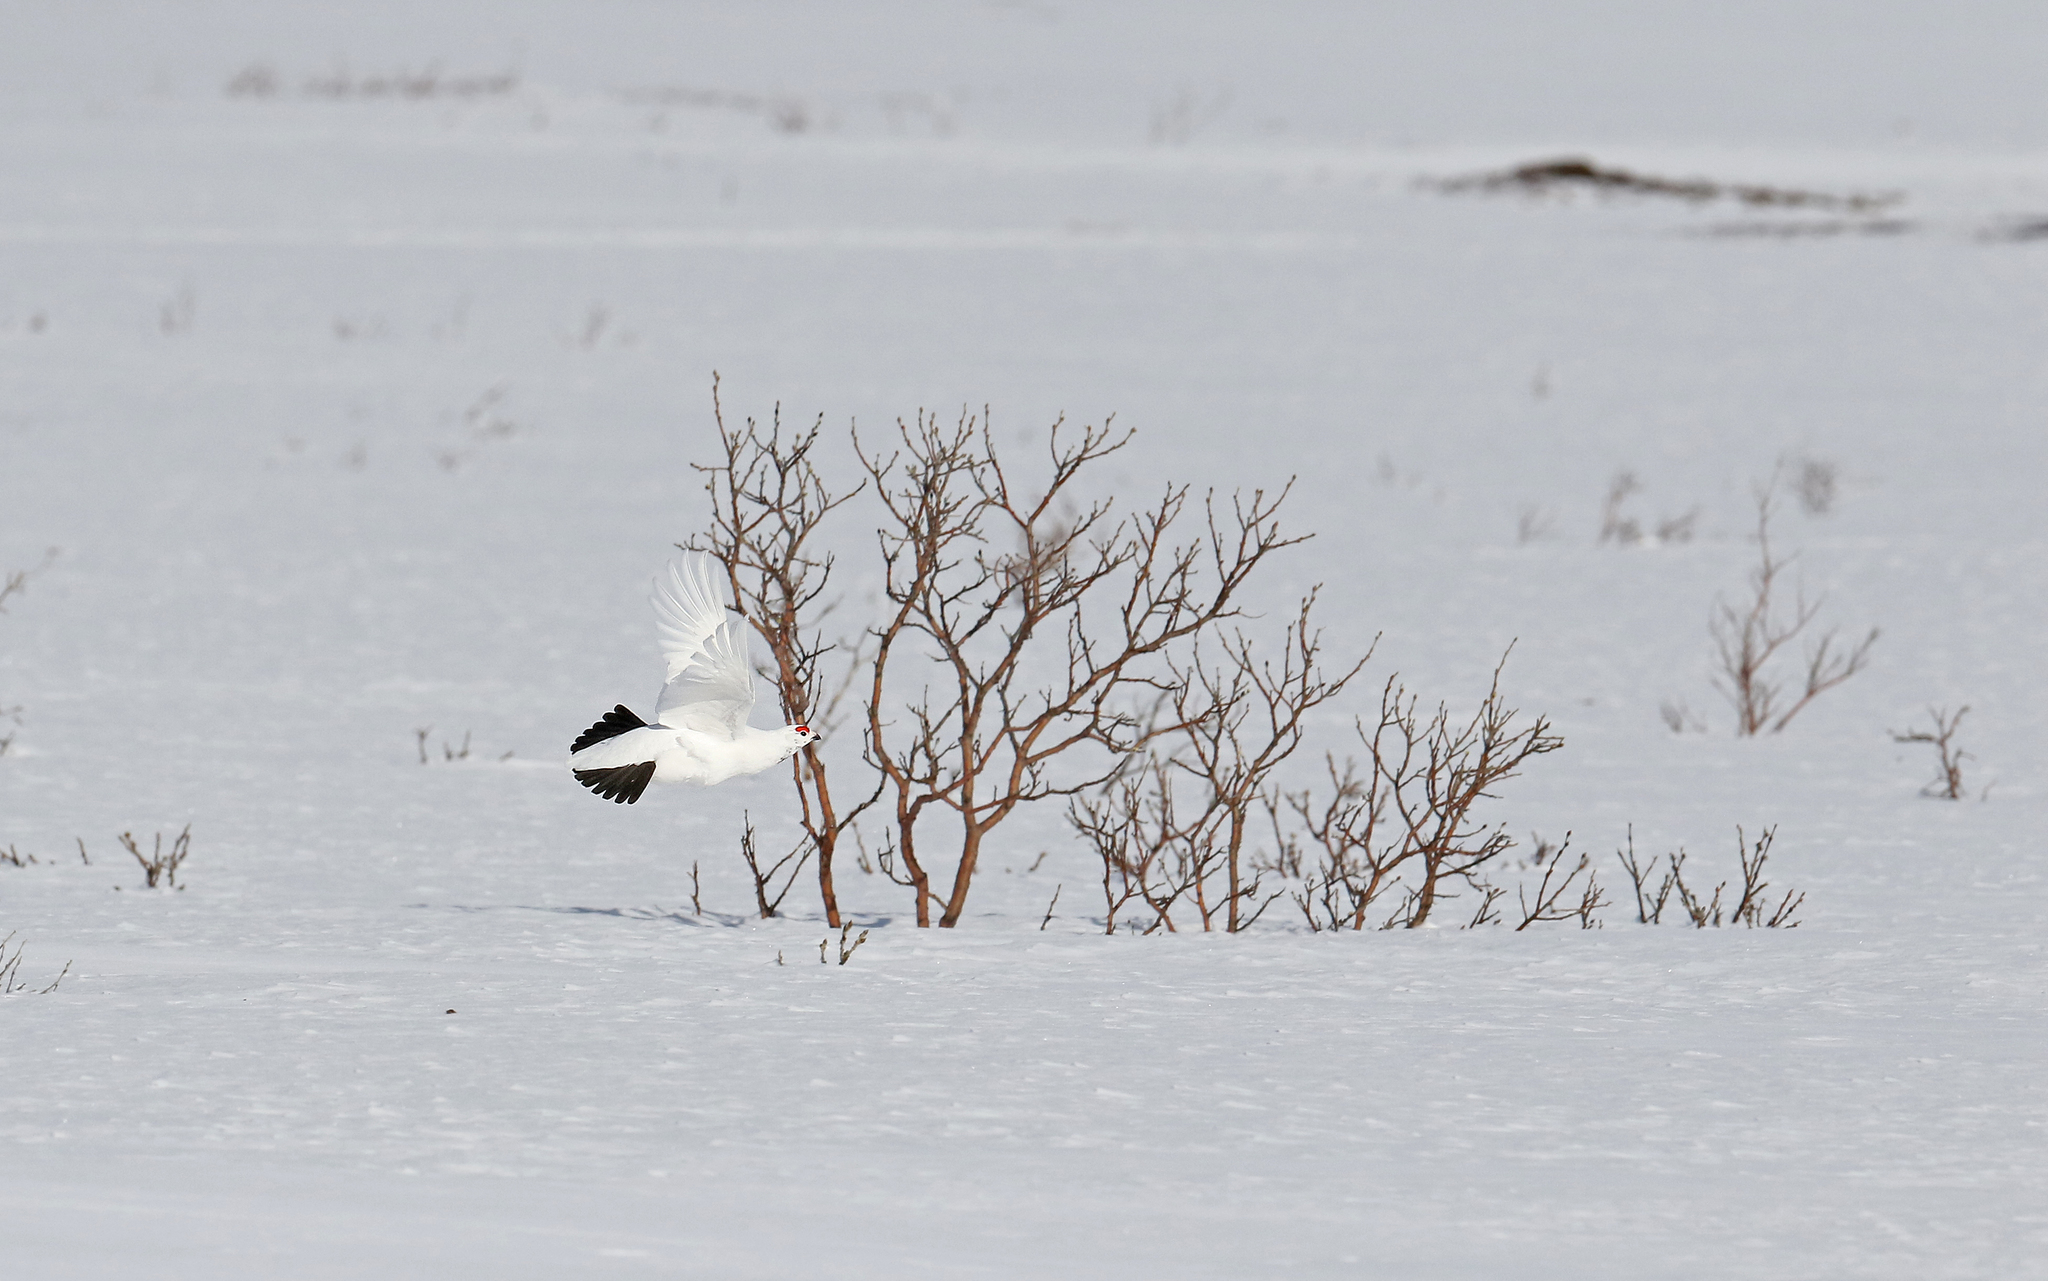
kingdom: Animalia
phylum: Chordata
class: Aves
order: Galliformes
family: Phasianidae
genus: Lagopus
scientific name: Lagopus lagopus
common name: Willow ptarmigan
